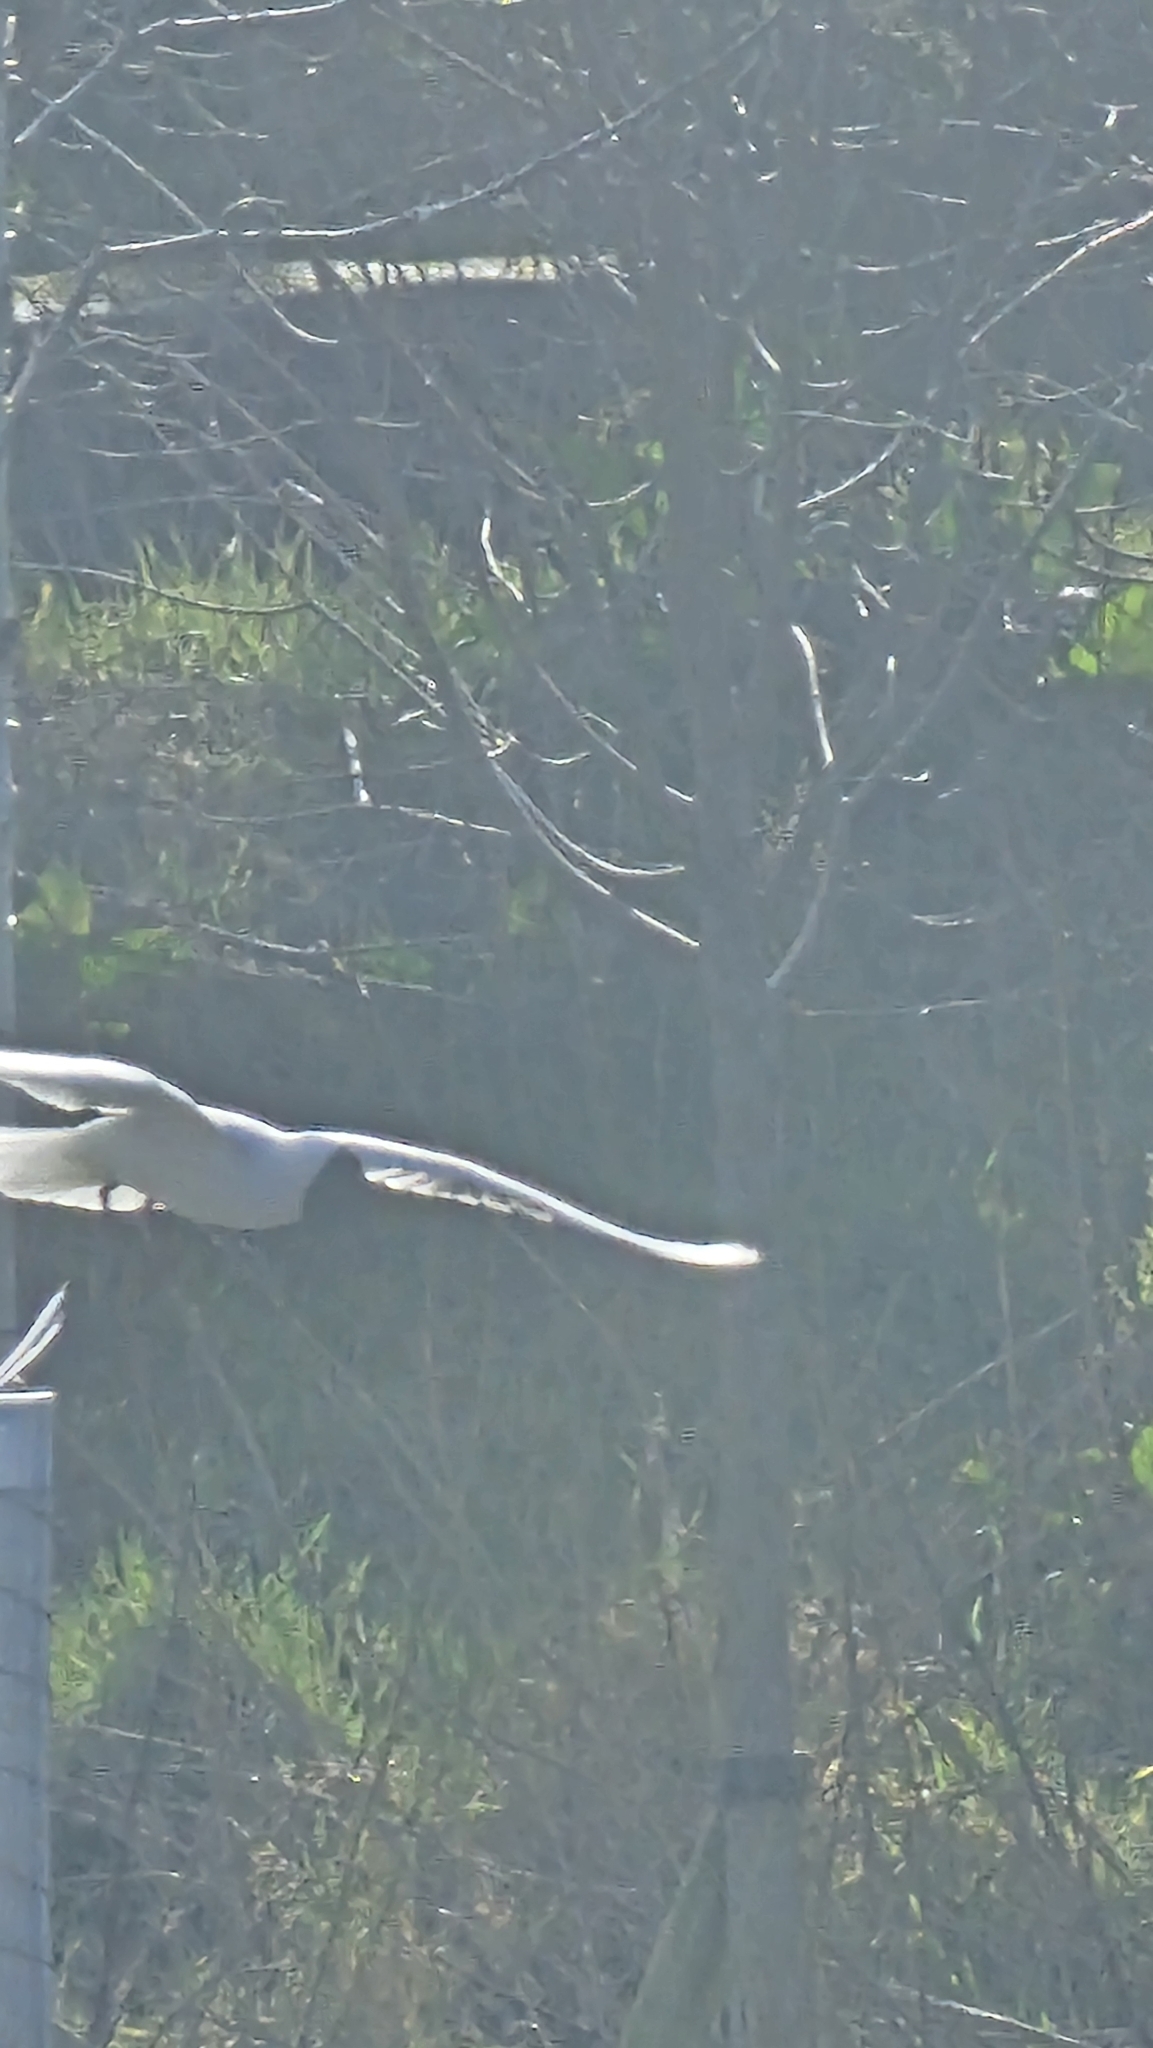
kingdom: Animalia
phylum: Chordata
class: Aves
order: Charadriiformes
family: Laridae
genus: Chroicocephalus
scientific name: Chroicocephalus ridibundus
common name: Black-headed gull
